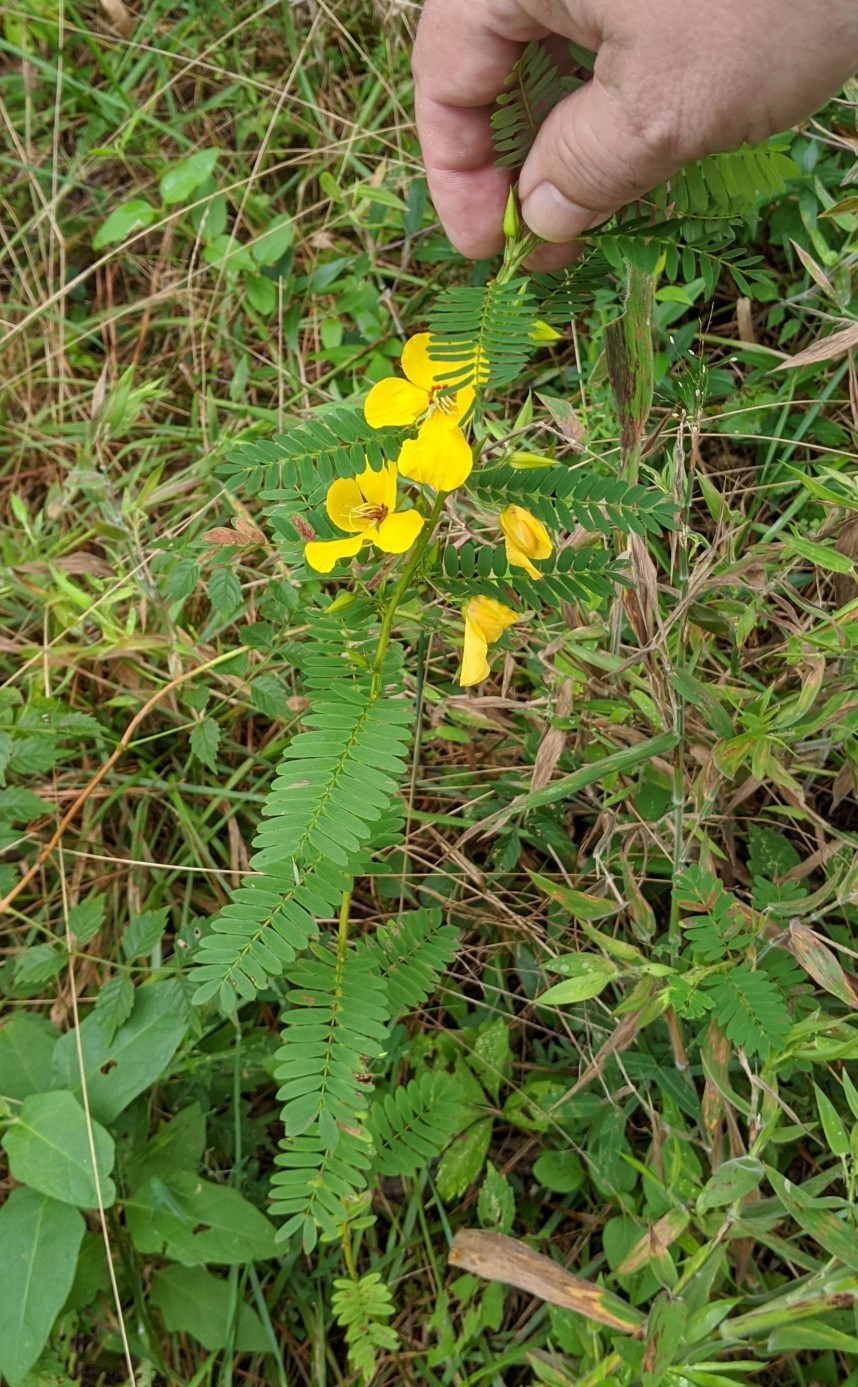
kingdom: Plantae
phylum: Tracheophyta
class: Magnoliopsida
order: Fabales
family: Fabaceae
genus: Chamaecrista
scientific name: Chamaecrista fasciculata
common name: Golden cassia
